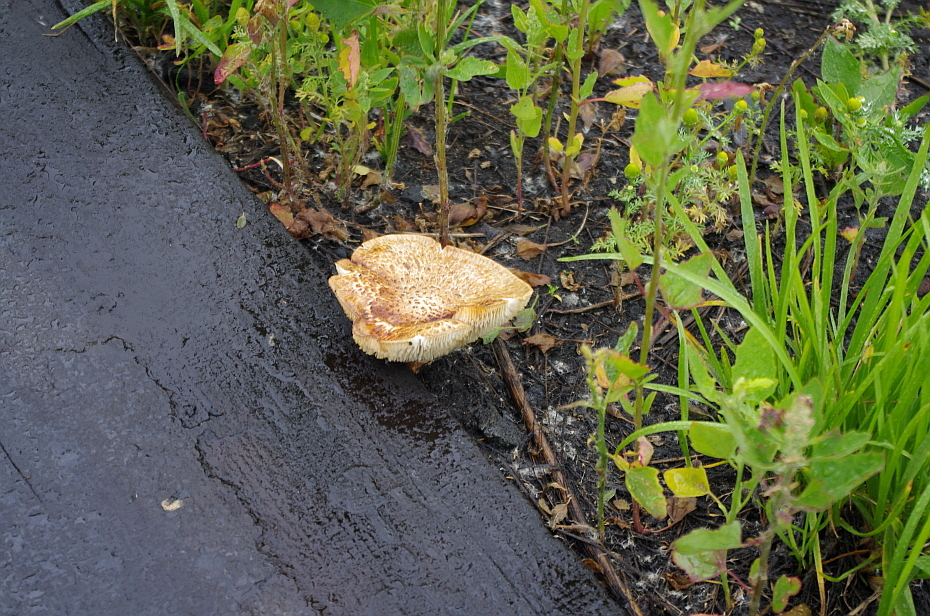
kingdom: Fungi
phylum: Basidiomycota
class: Agaricomycetes
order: Gloeophyllales
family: Gloeophyllaceae
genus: Neolentinus
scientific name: Neolentinus lepideus
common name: Scaly sawgill
